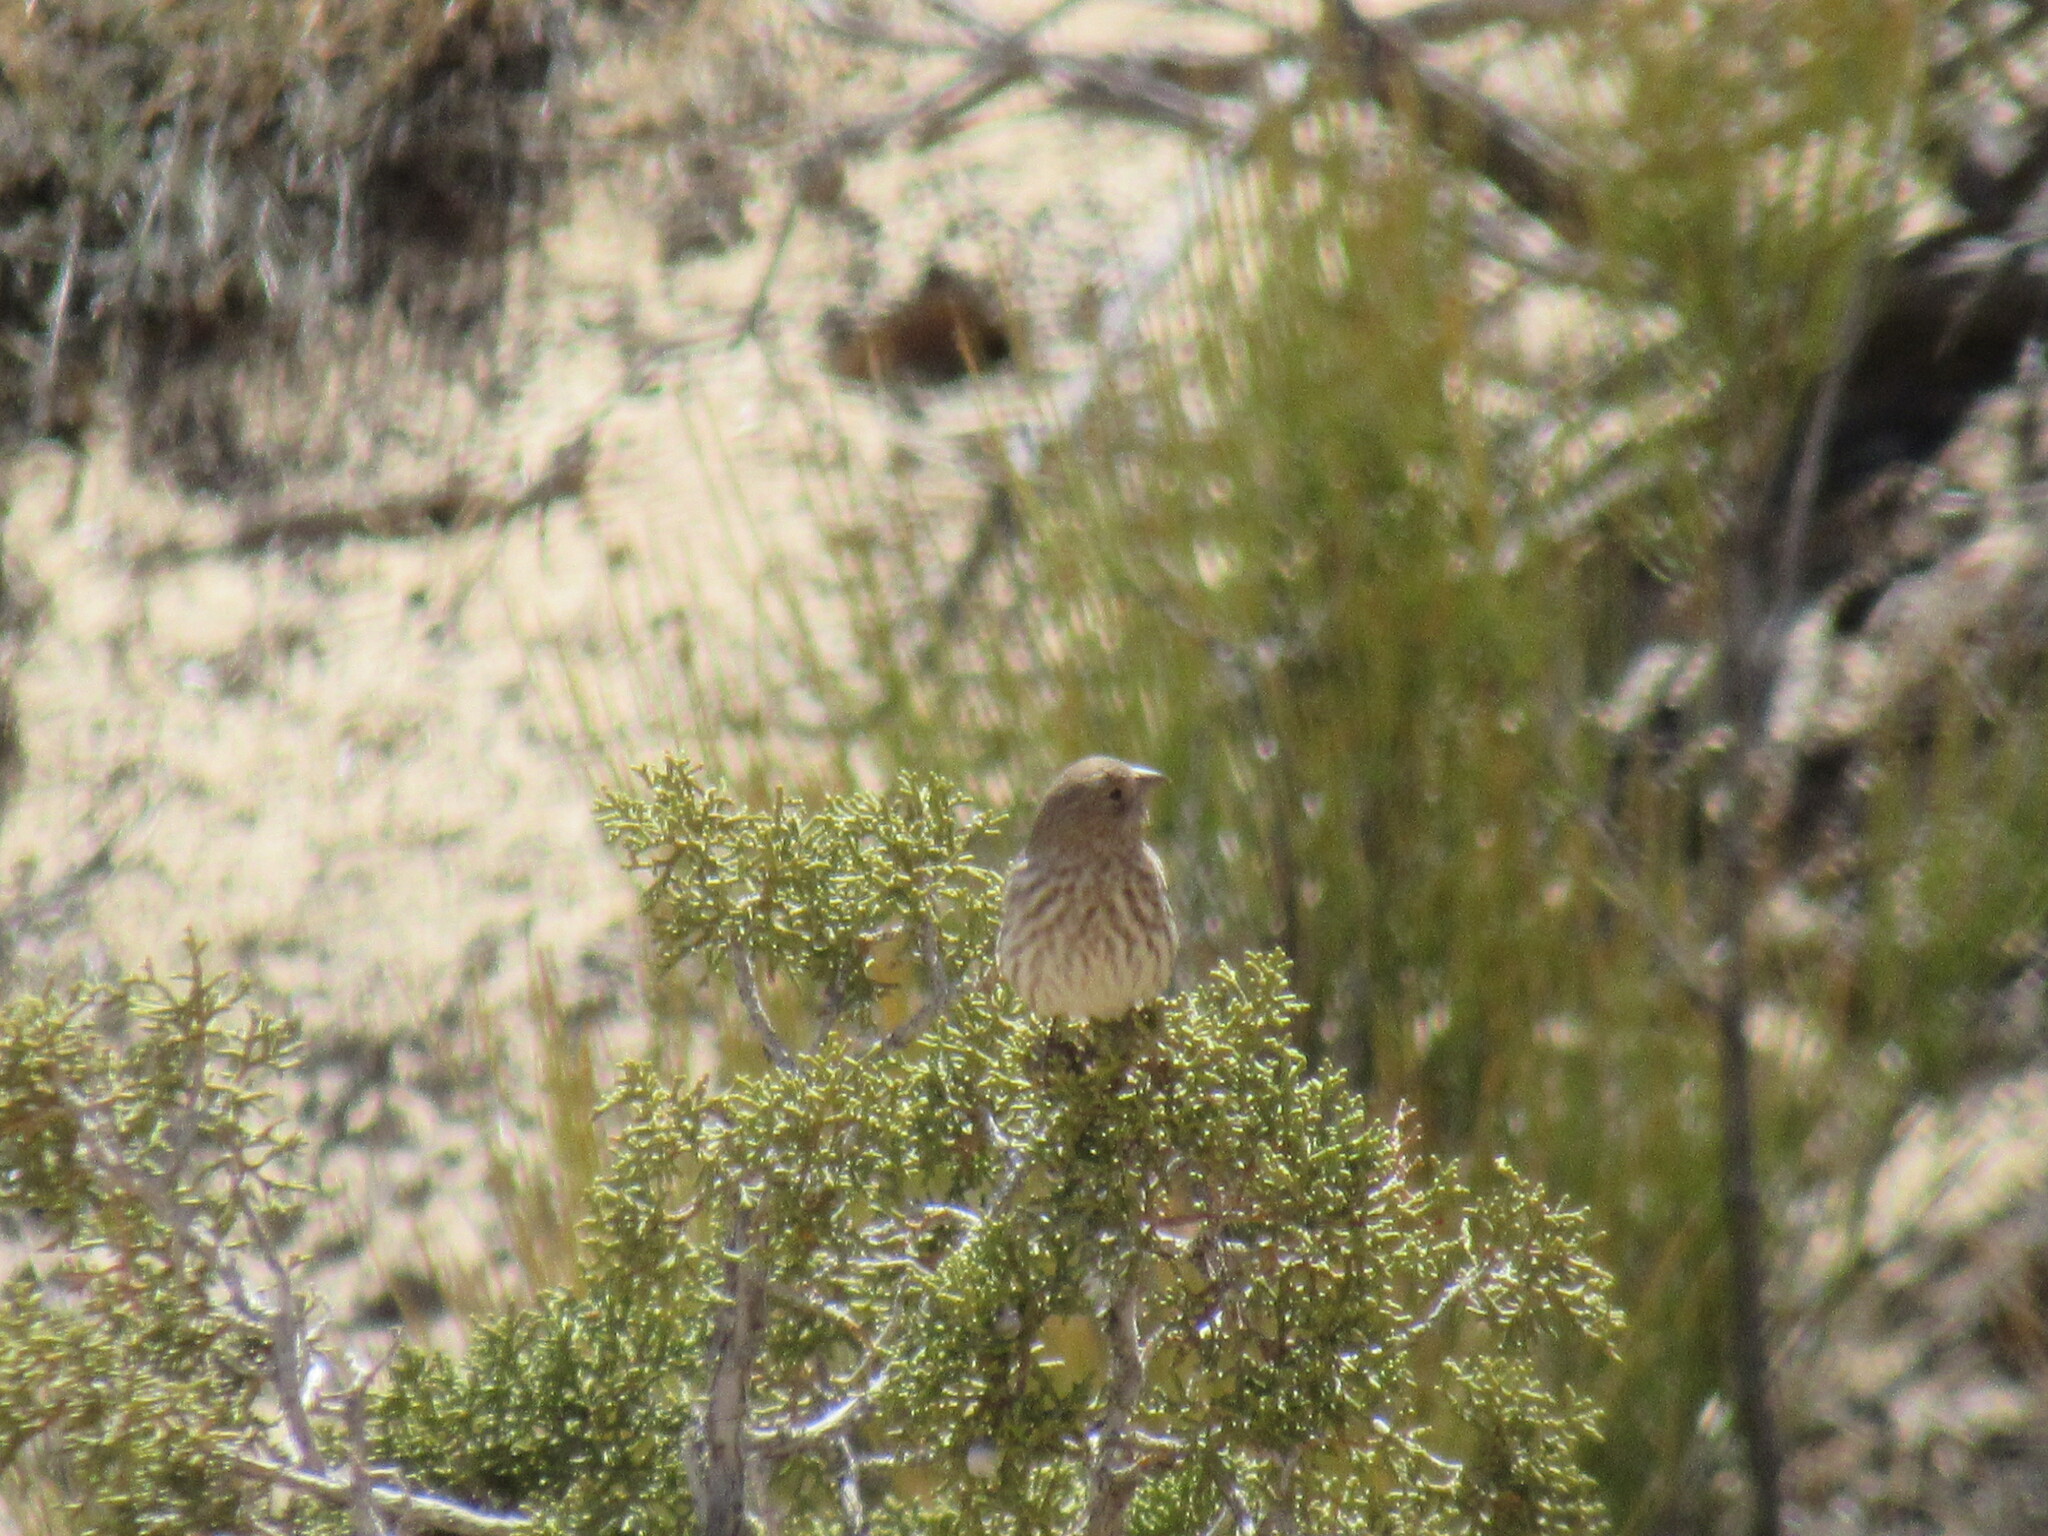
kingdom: Animalia
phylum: Chordata
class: Aves
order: Passeriformes
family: Fringillidae
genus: Haemorhous
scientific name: Haemorhous mexicanus
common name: House finch
